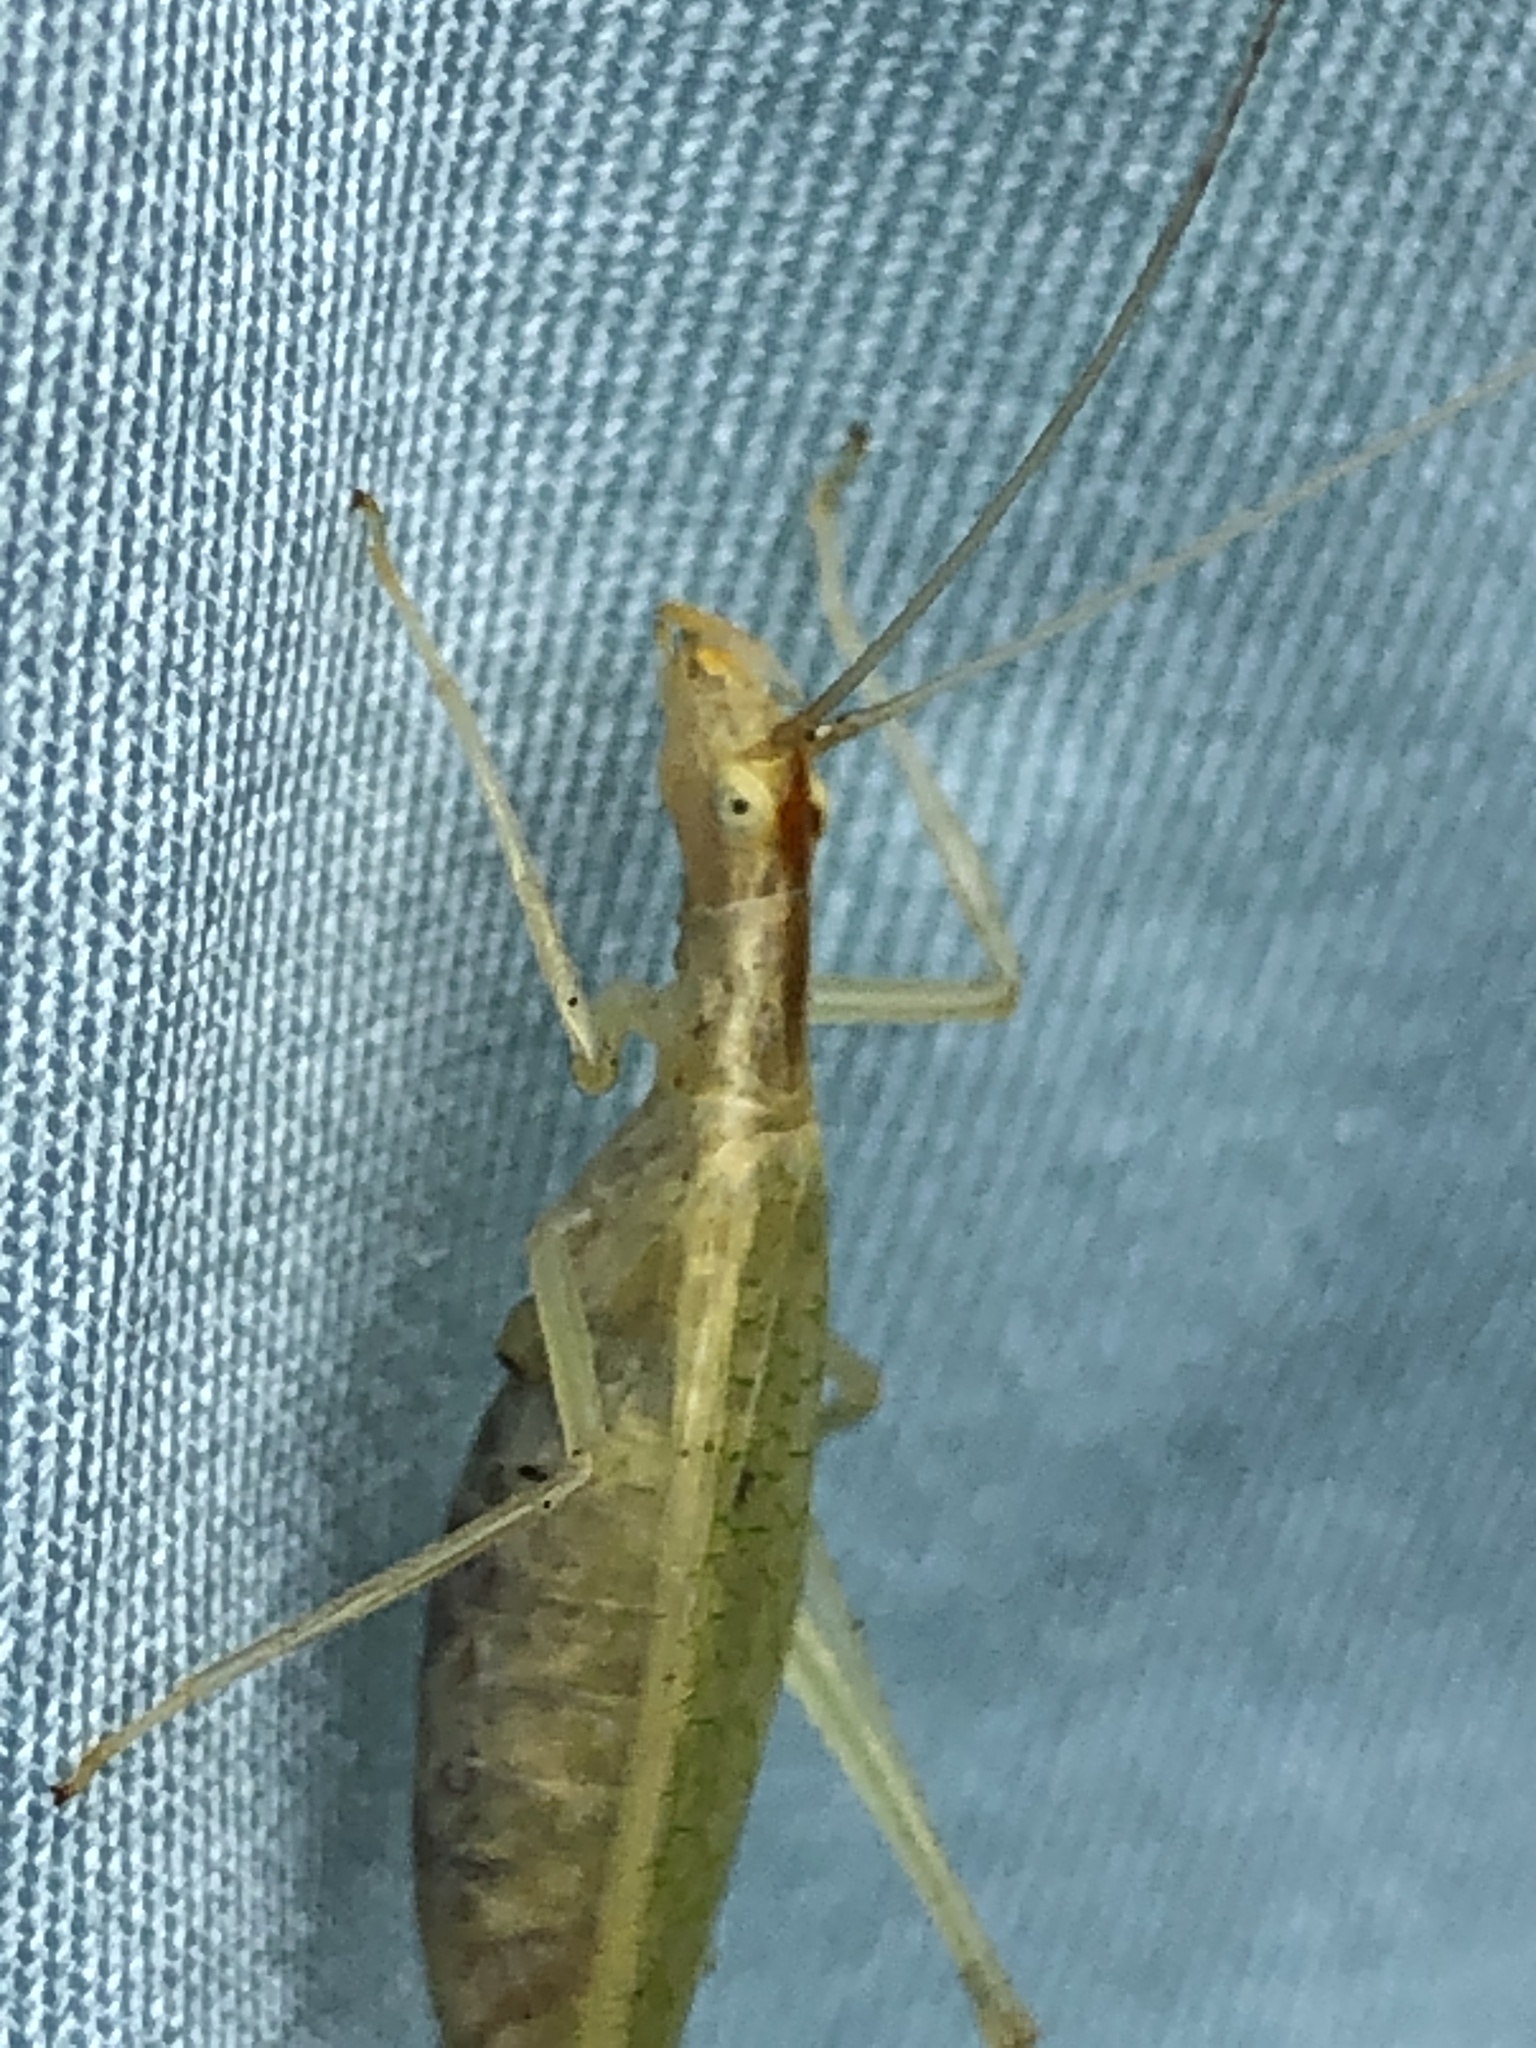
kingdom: Animalia
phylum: Arthropoda
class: Insecta
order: Orthoptera
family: Gryllidae
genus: Oecanthus
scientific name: Oecanthus niveus
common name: Narrow-winged tree cricket
